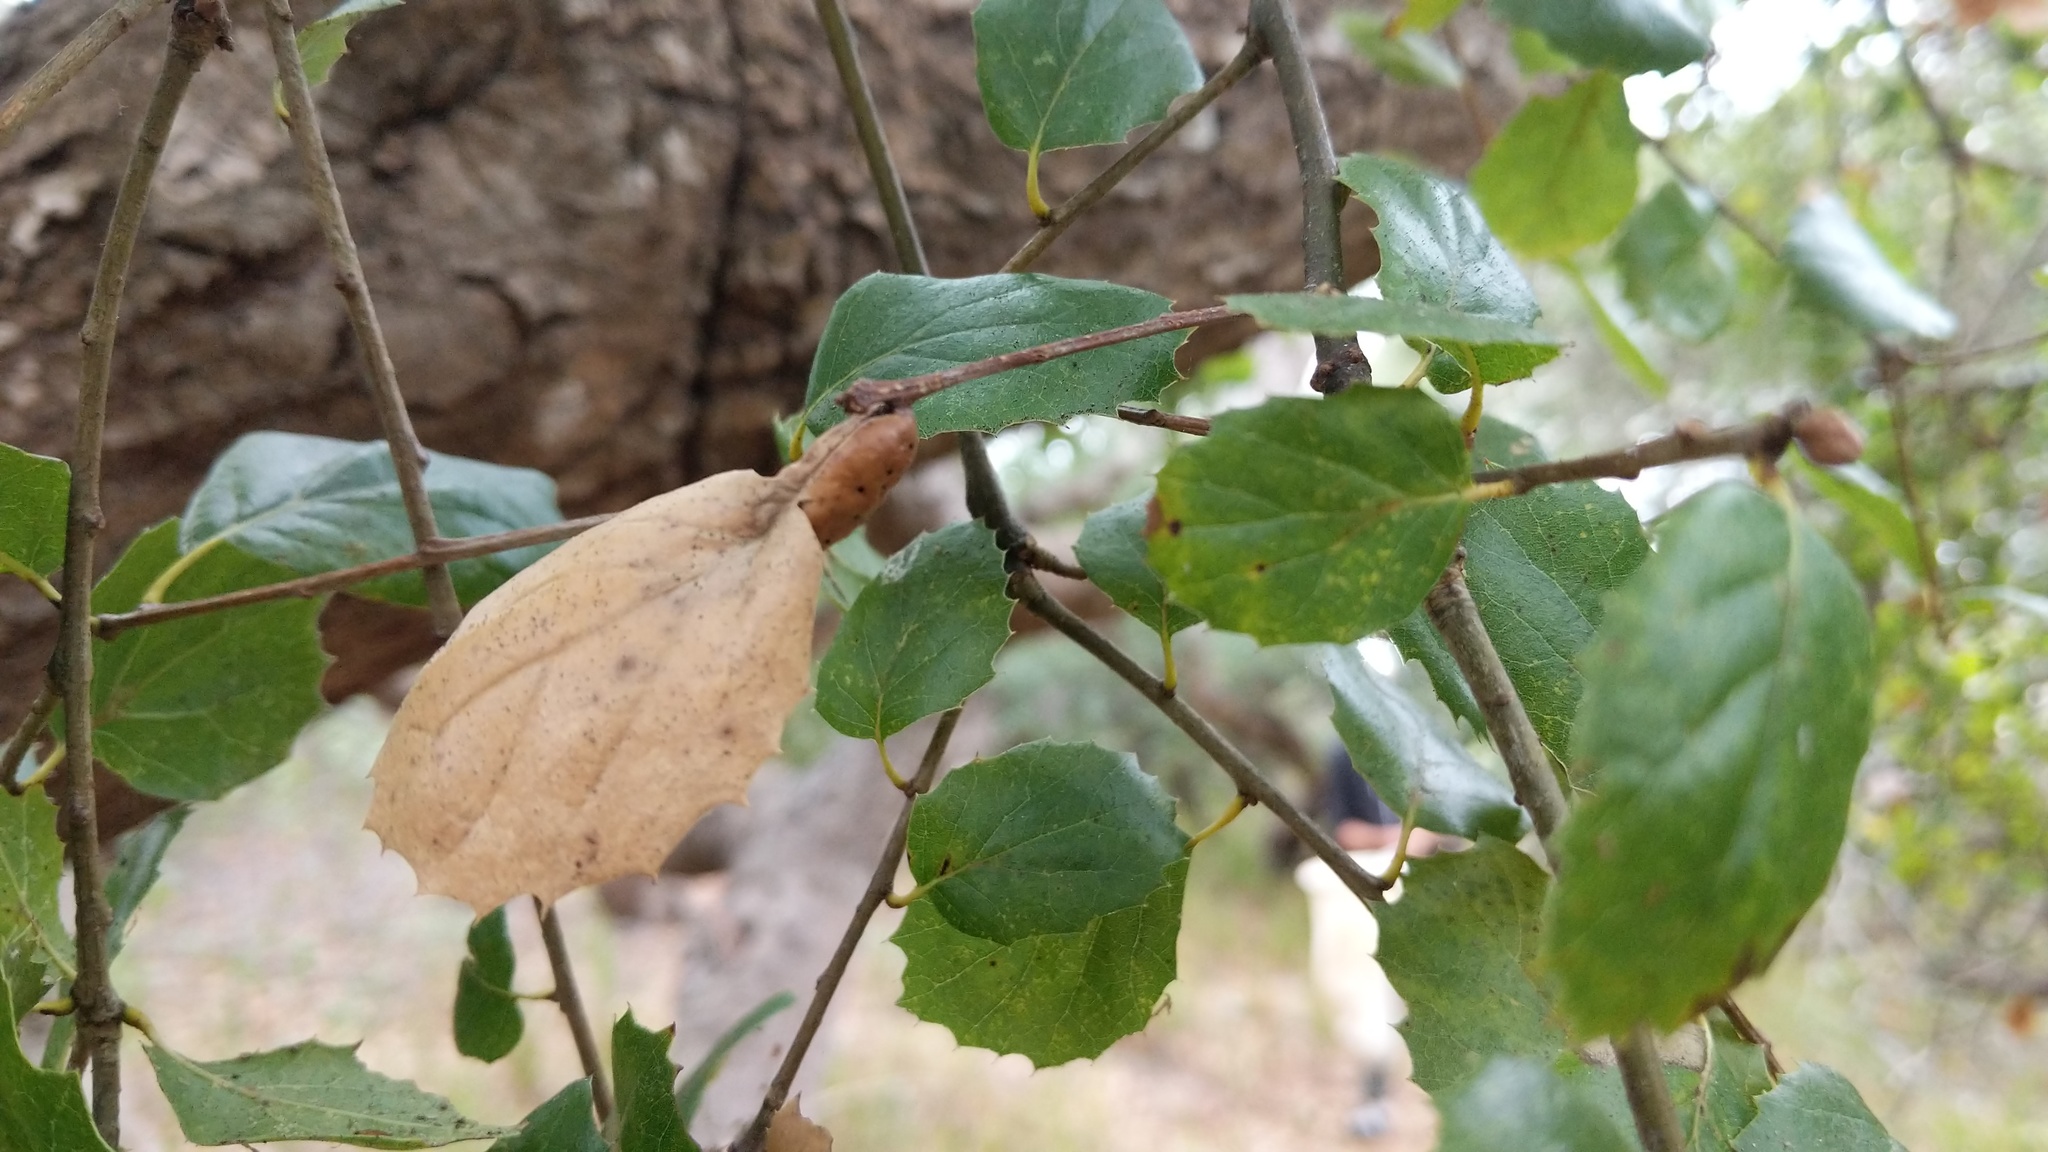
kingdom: Animalia
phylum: Arthropoda
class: Insecta
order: Hymenoptera
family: Cynipidae
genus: Melikaiella
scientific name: Melikaiella
